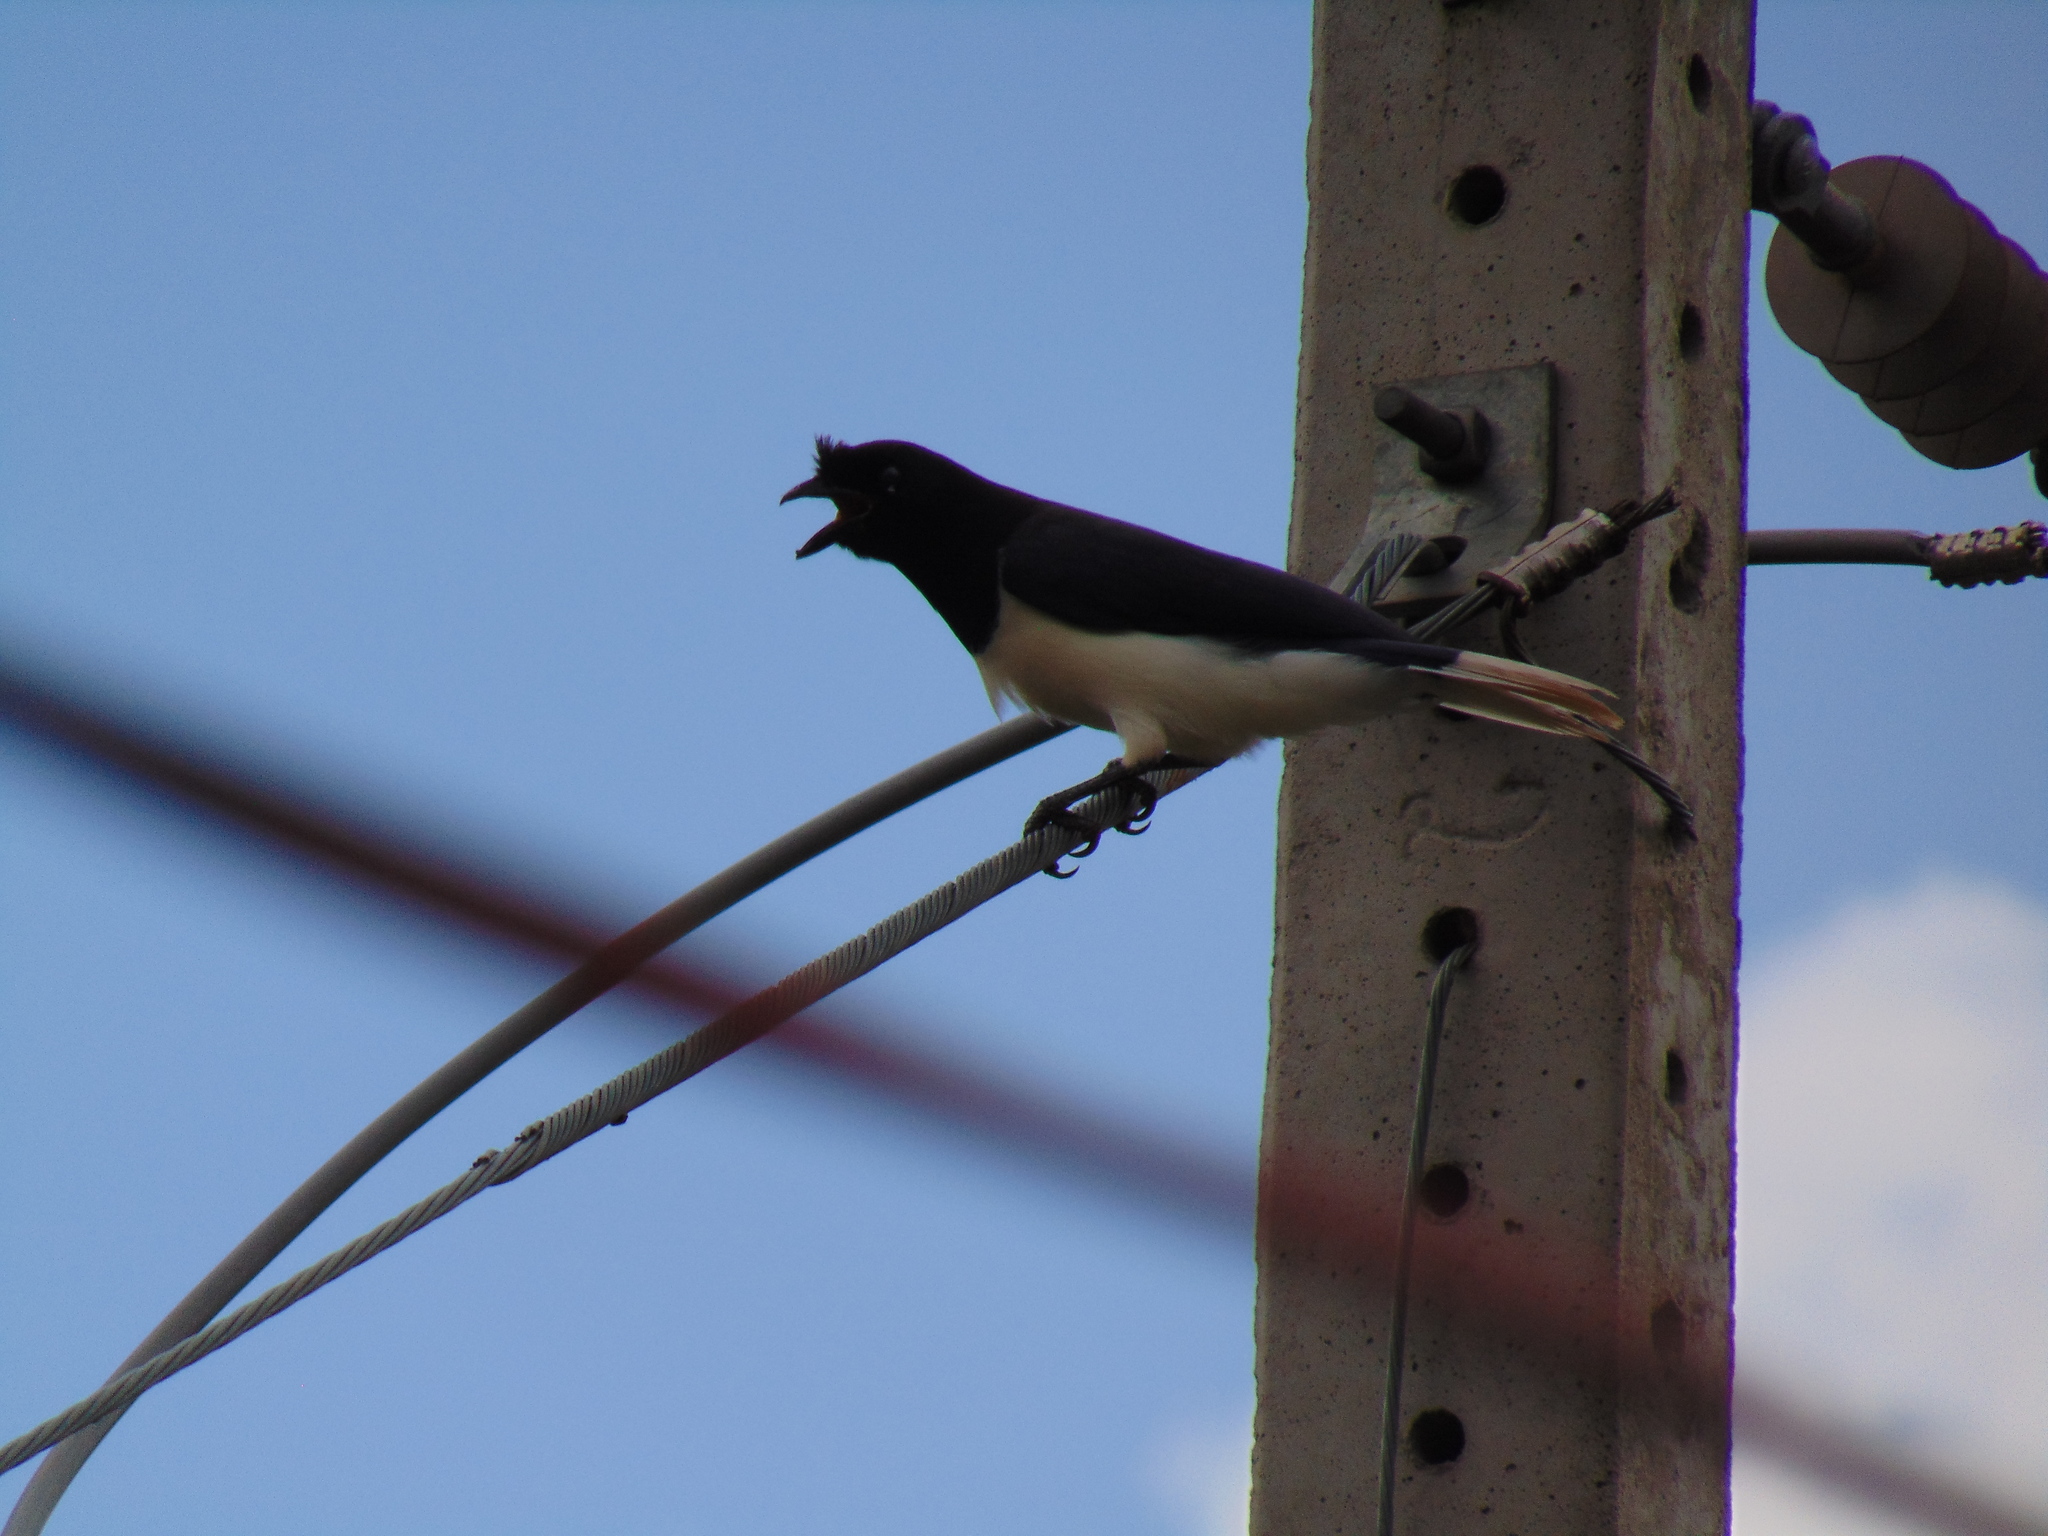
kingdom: Animalia
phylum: Chordata
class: Aves
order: Passeriformes
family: Corvidae
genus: Cyanocorax
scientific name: Cyanocorax cristatellus
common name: Curl-crested jay
